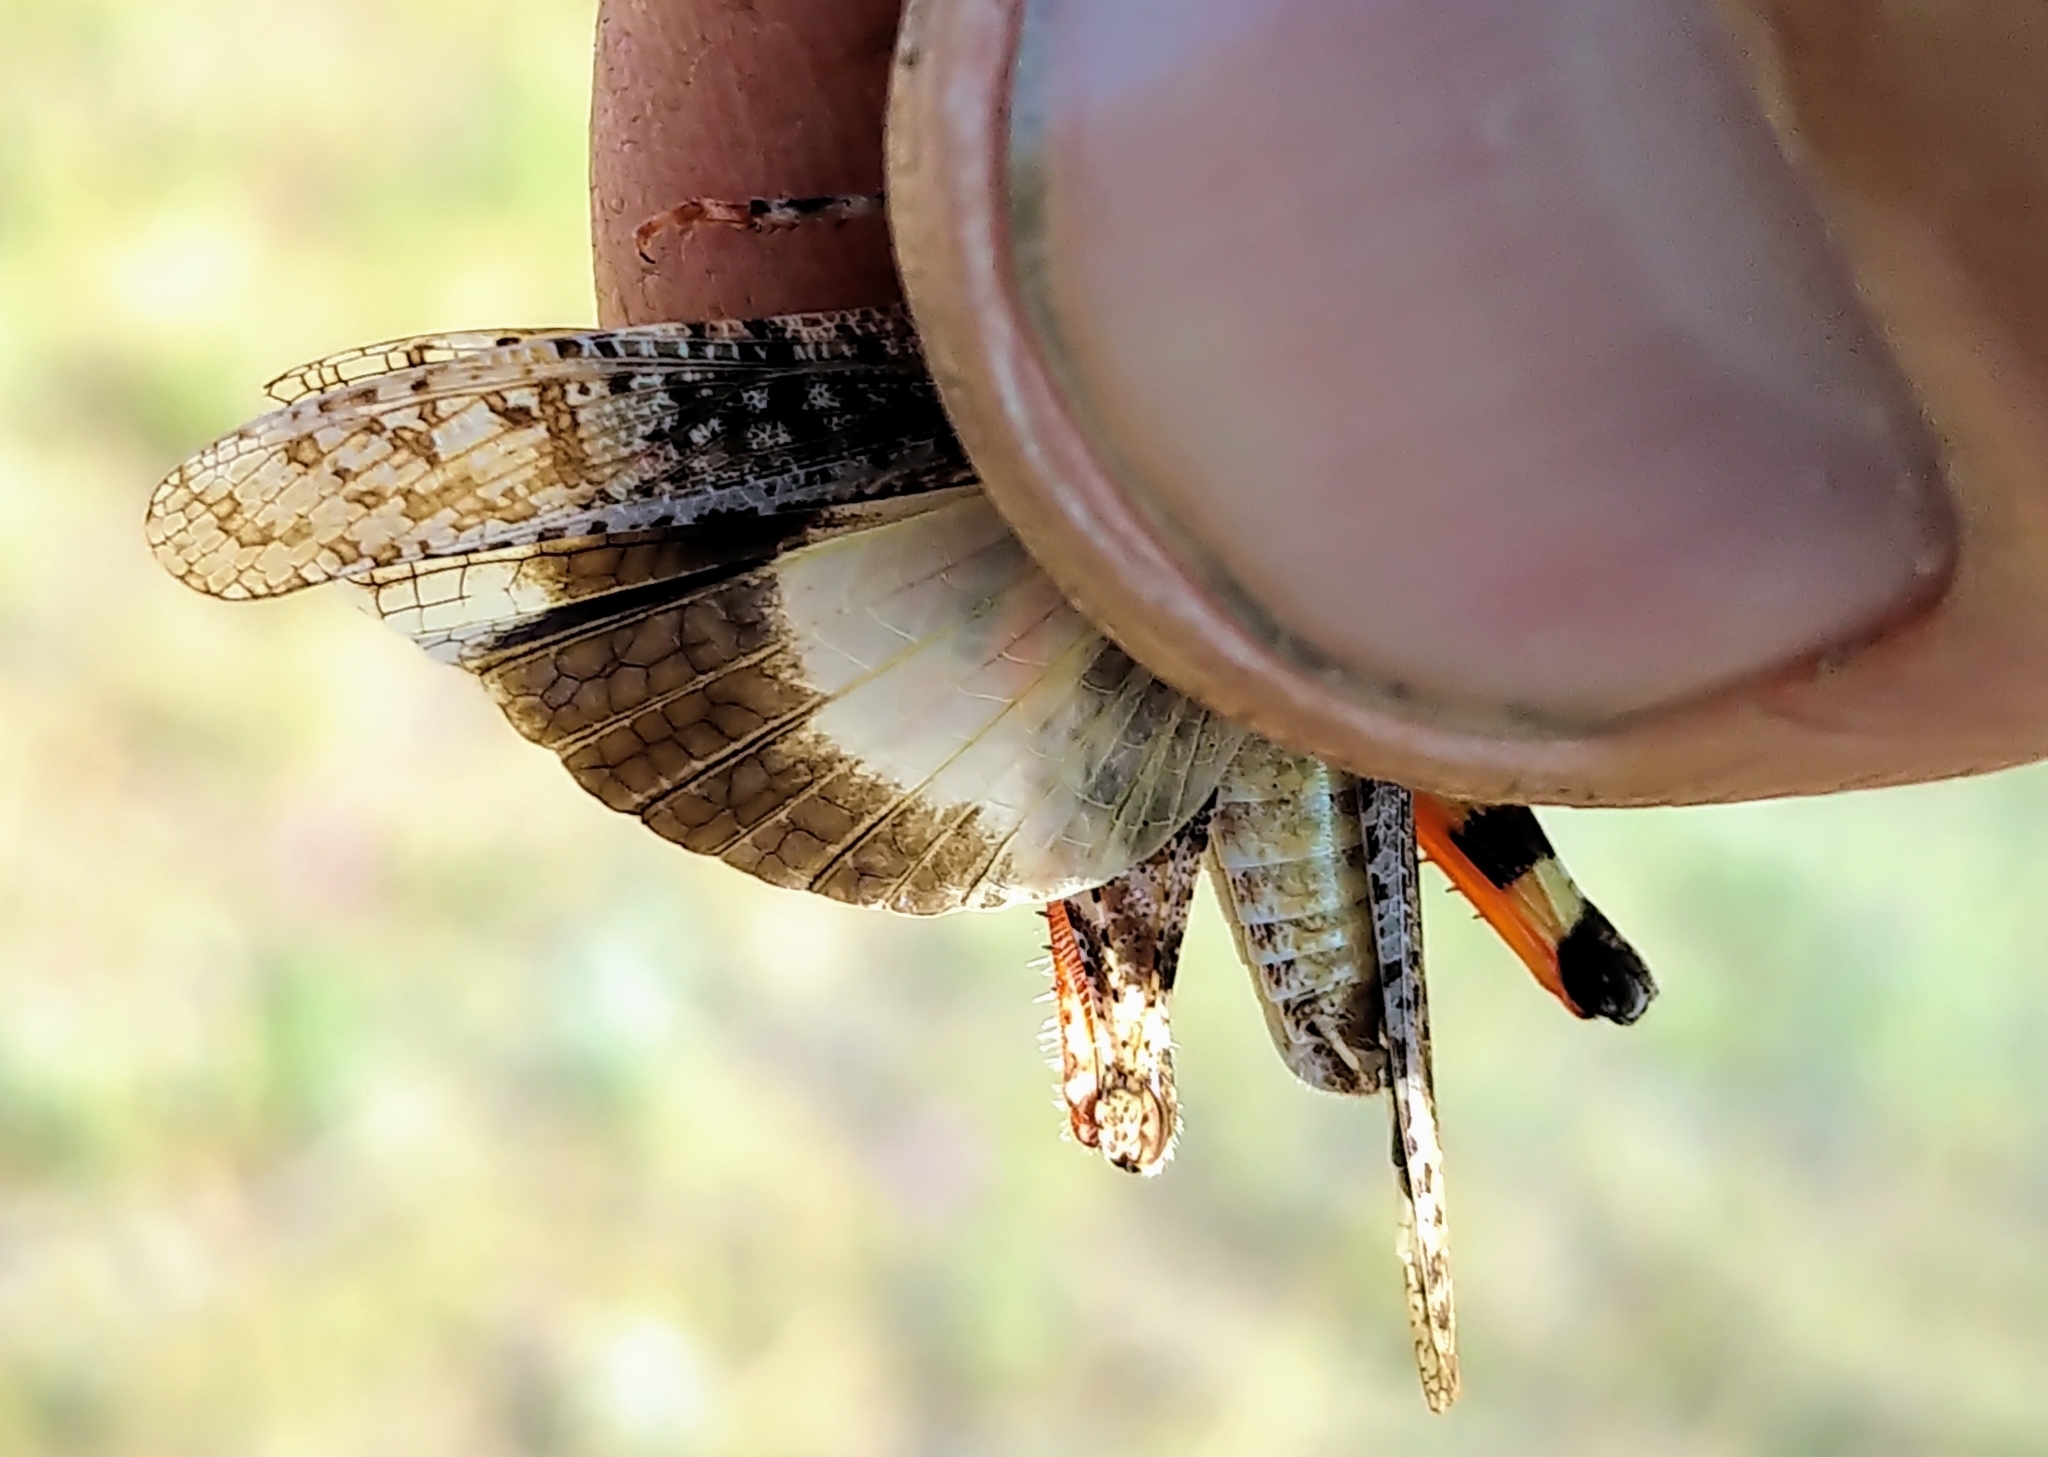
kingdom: Animalia
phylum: Arthropoda
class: Insecta
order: Orthoptera
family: Acrididae
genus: Spharagemon
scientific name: Spharagemon collare
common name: Mottled sand grasshopper
